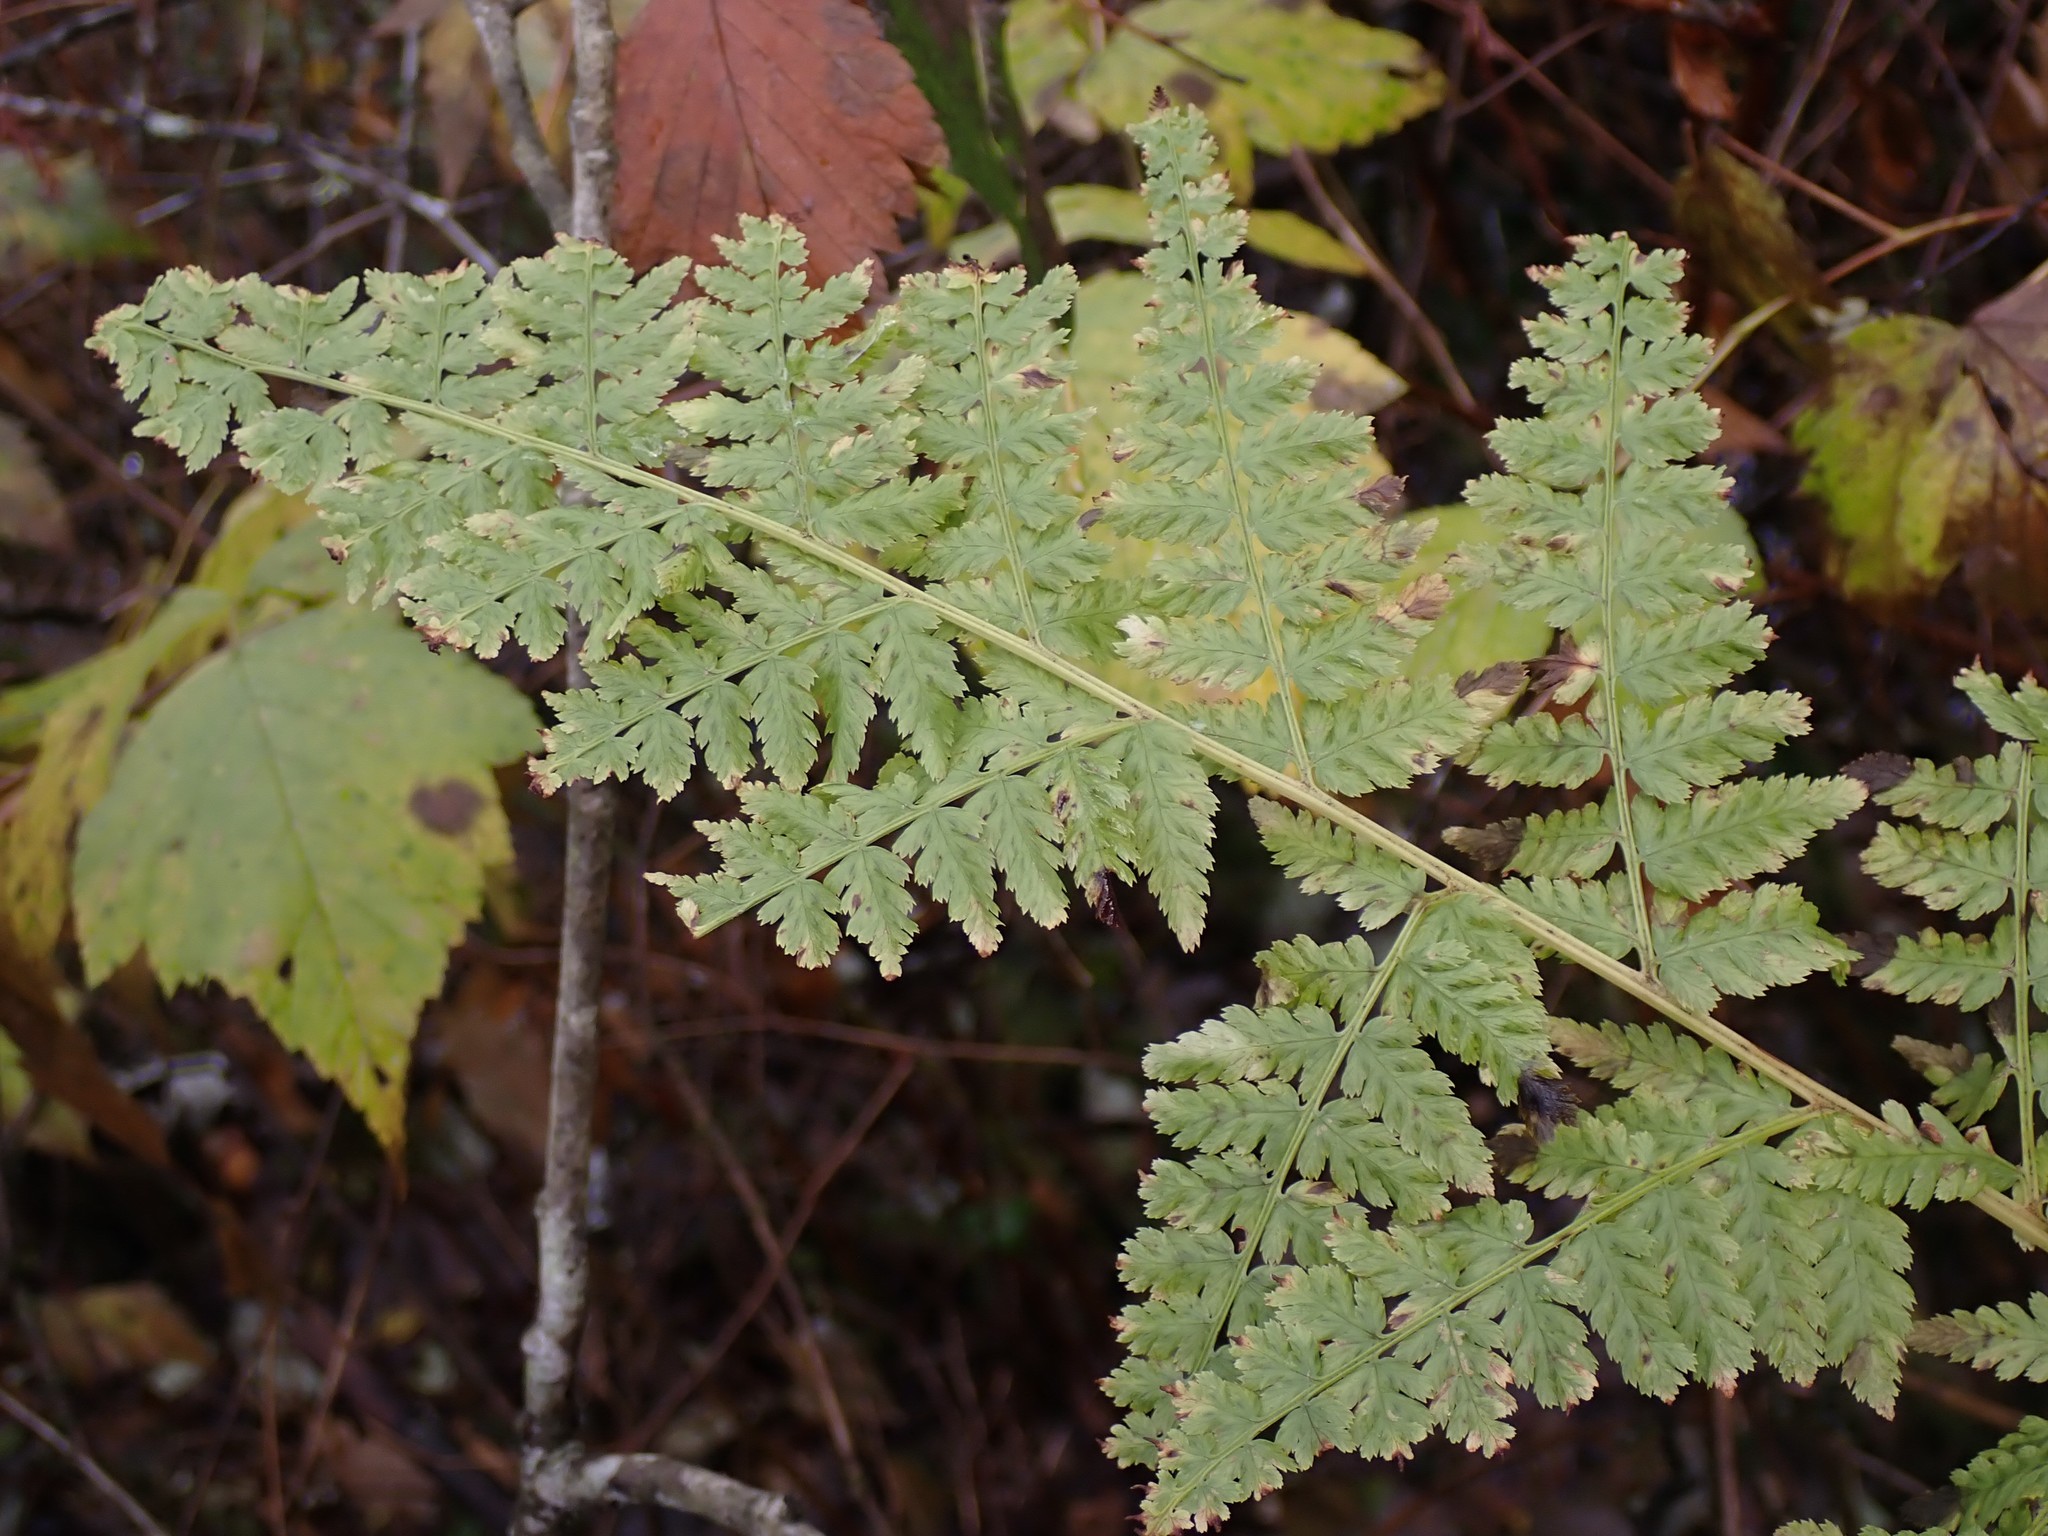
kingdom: Plantae
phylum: Tracheophyta
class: Polypodiopsida
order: Polypodiales
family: Athyriaceae
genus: Athyrium
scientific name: Athyrium filix-femina
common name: Lady fern
